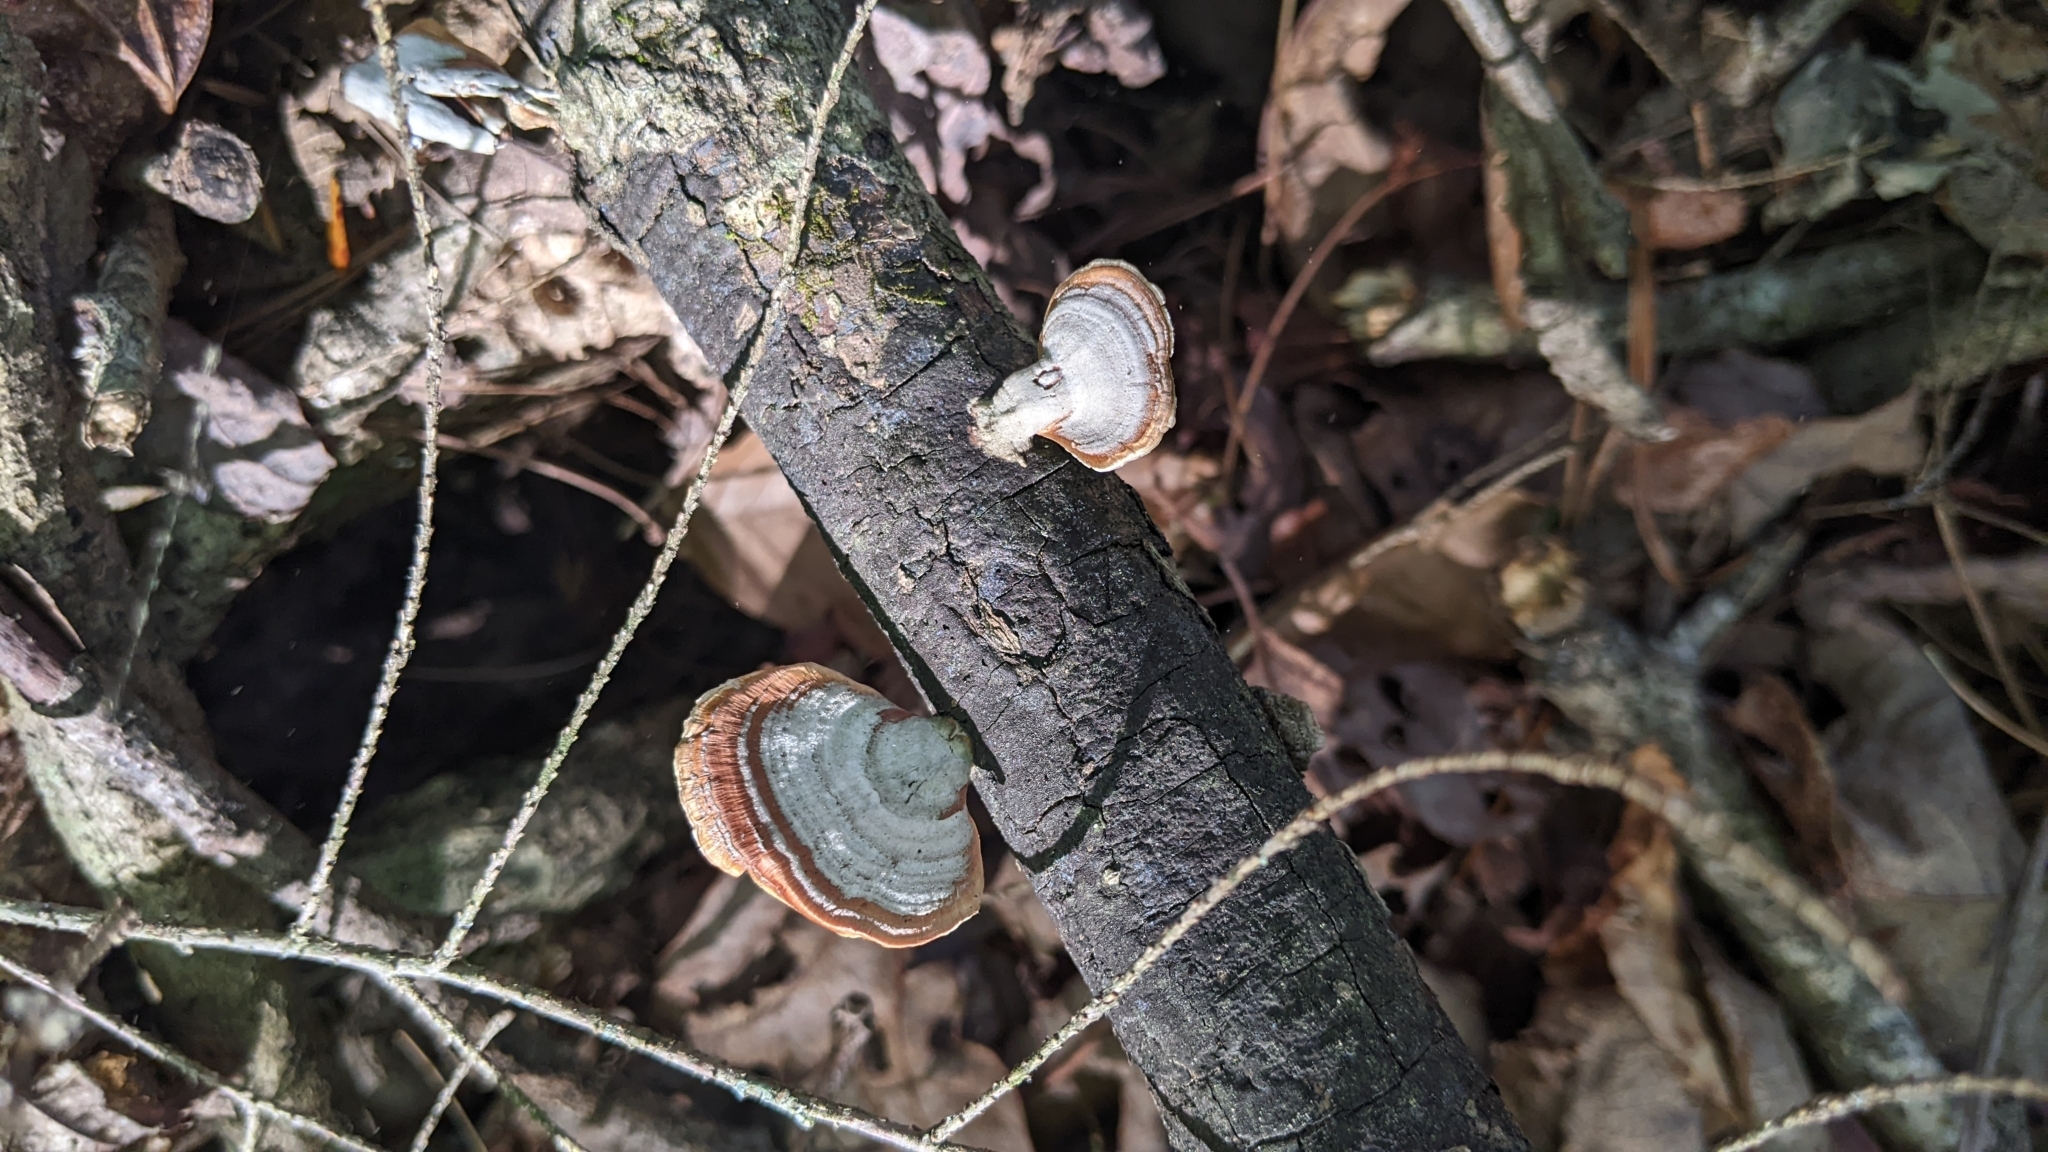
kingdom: Fungi
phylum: Basidiomycota
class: Agaricomycetes
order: Russulales
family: Stereaceae
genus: Stereum
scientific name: Stereum lobatum
